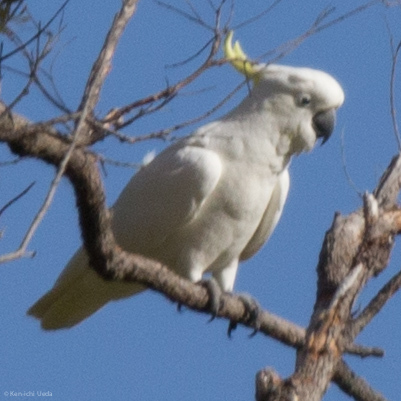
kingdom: Animalia
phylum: Chordata
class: Aves
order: Psittaciformes
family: Psittacidae
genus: Cacatua
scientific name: Cacatua galerita
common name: Sulphur-crested cockatoo
